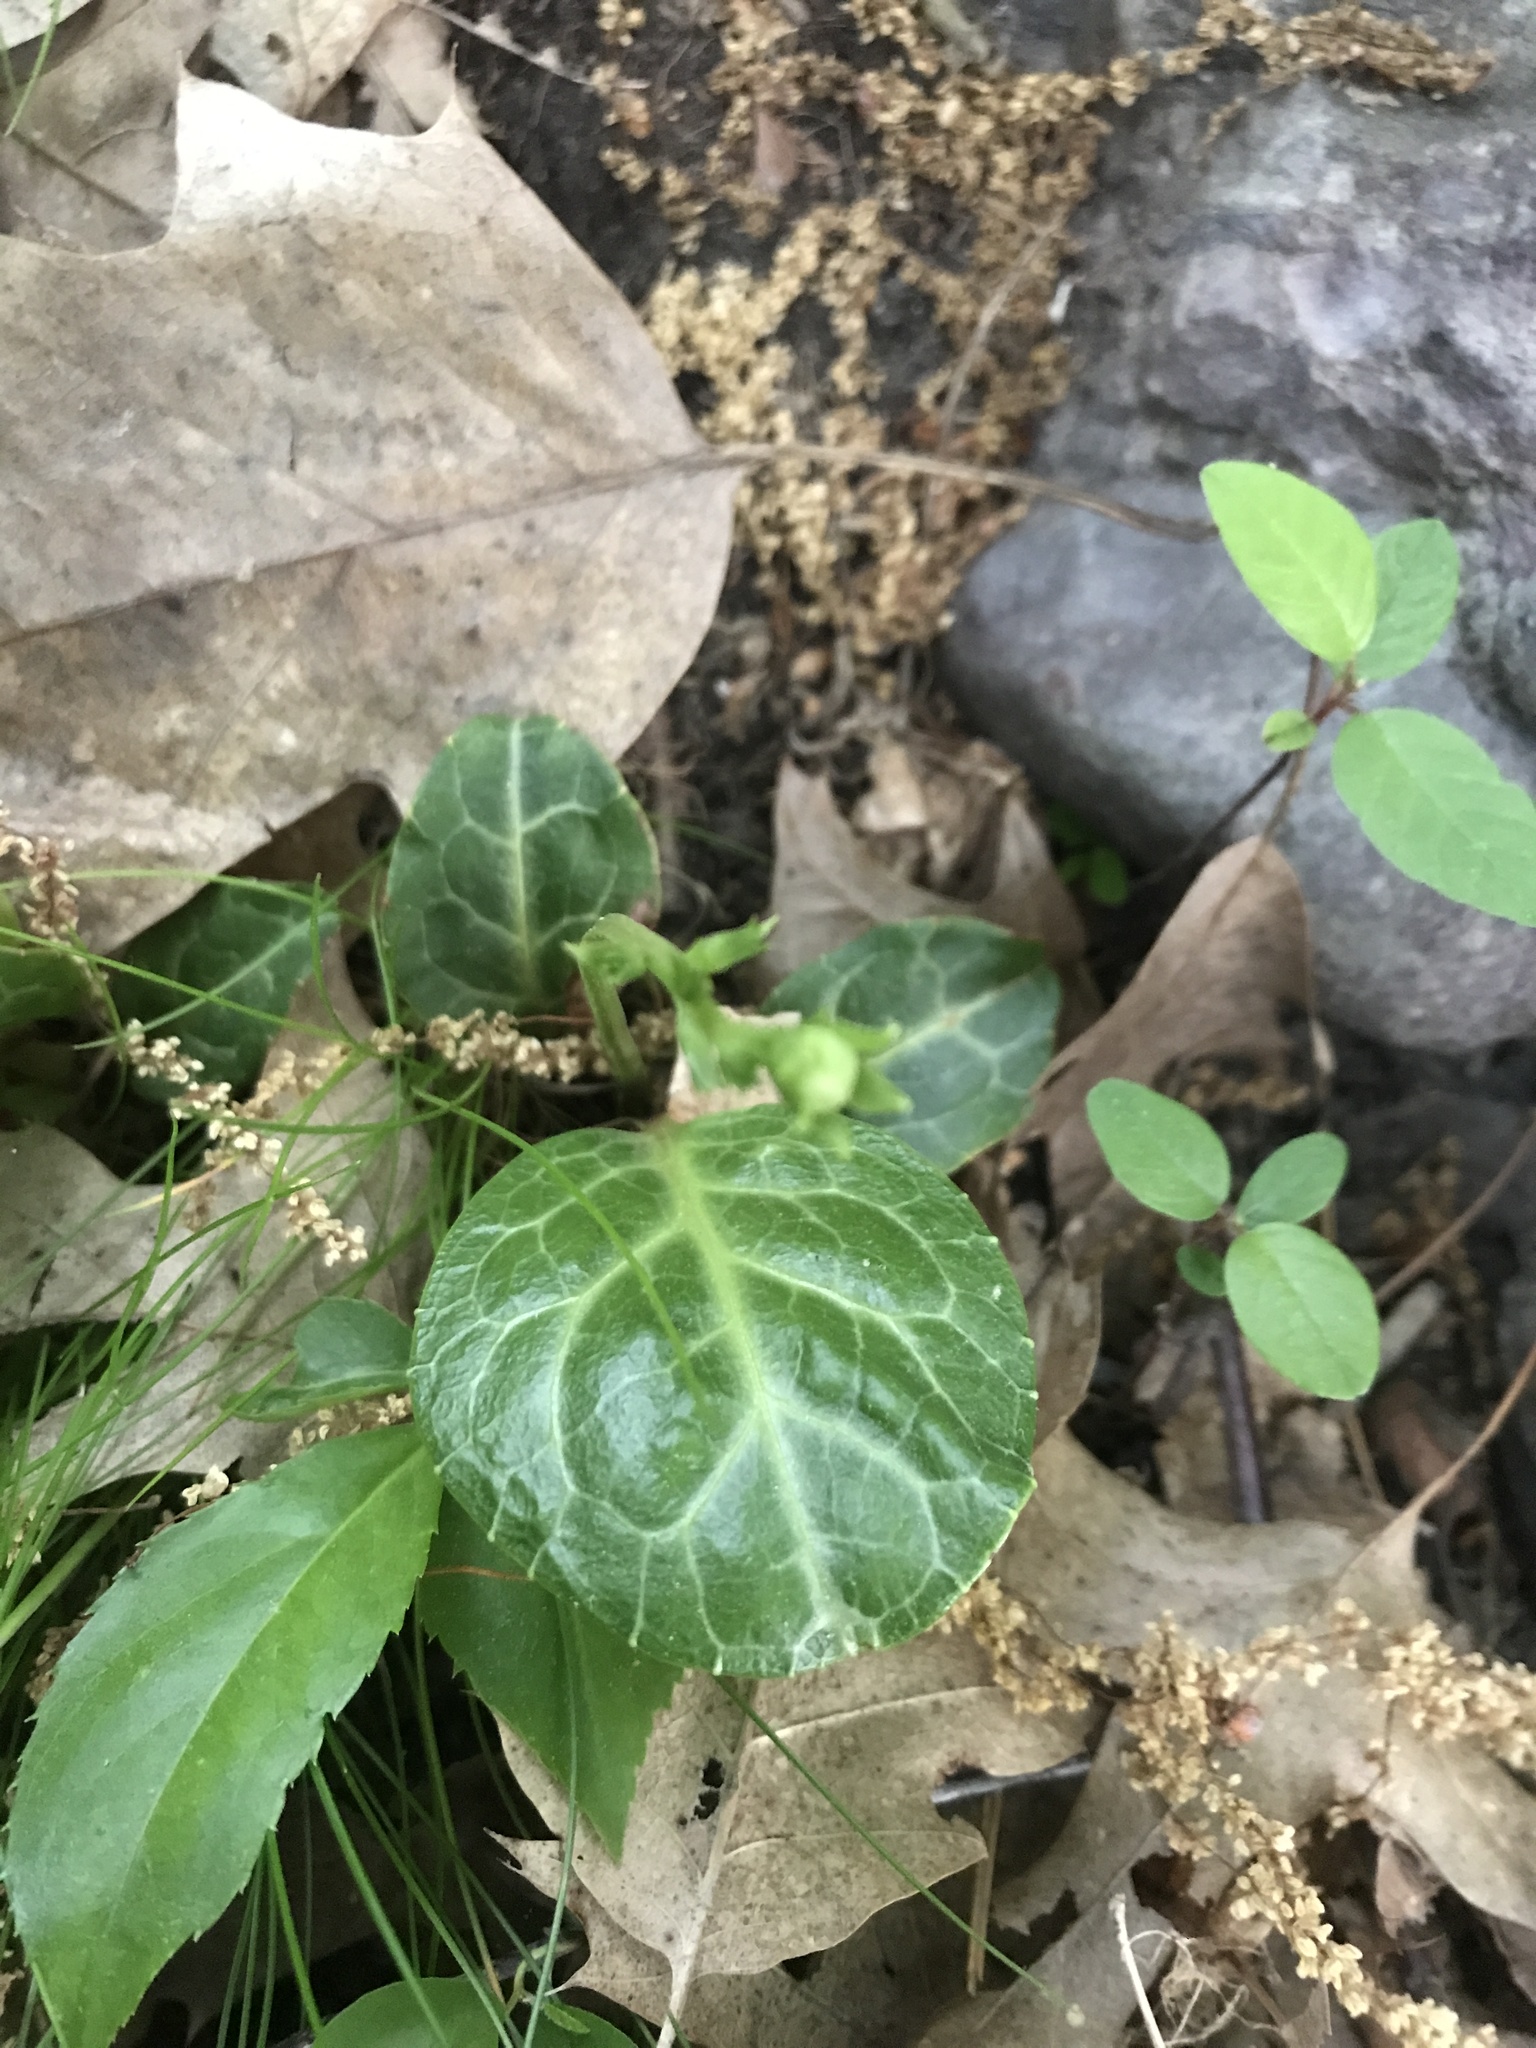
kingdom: Plantae
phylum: Tracheophyta
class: Magnoliopsida
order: Ericales
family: Ericaceae
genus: Pyrola
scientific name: Pyrola americana
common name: American wintergreen
